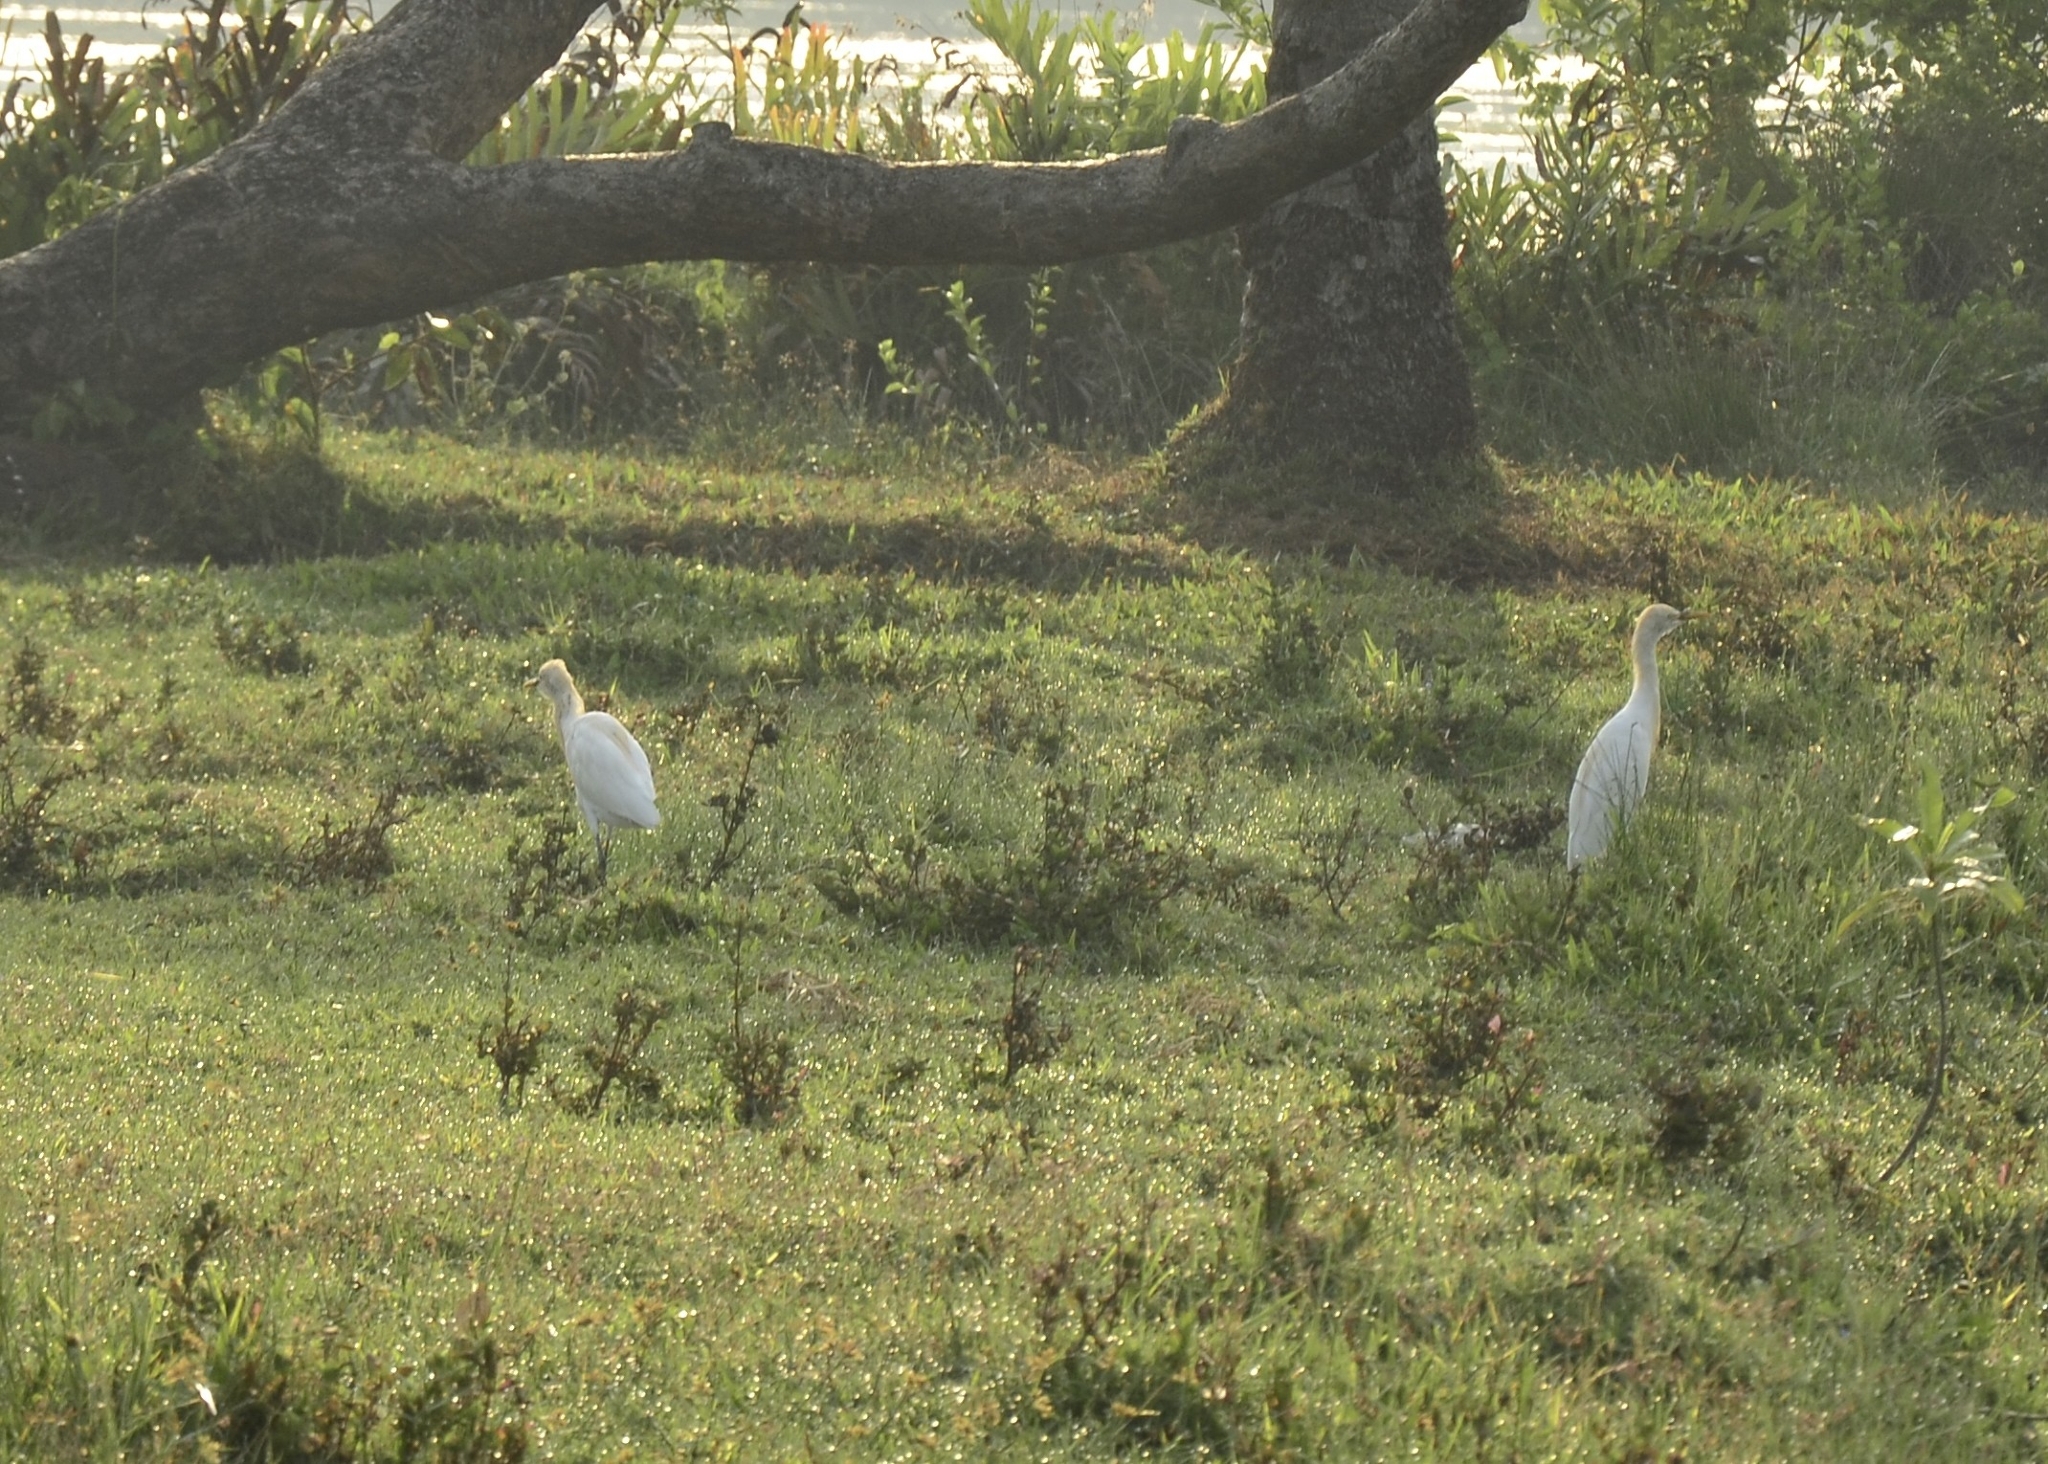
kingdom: Animalia
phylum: Chordata
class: Aves
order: Pelecaniformes
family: Ardeidae
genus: Bubulcus
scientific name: Bubulcus coromandus
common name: Eastern cattle egret
